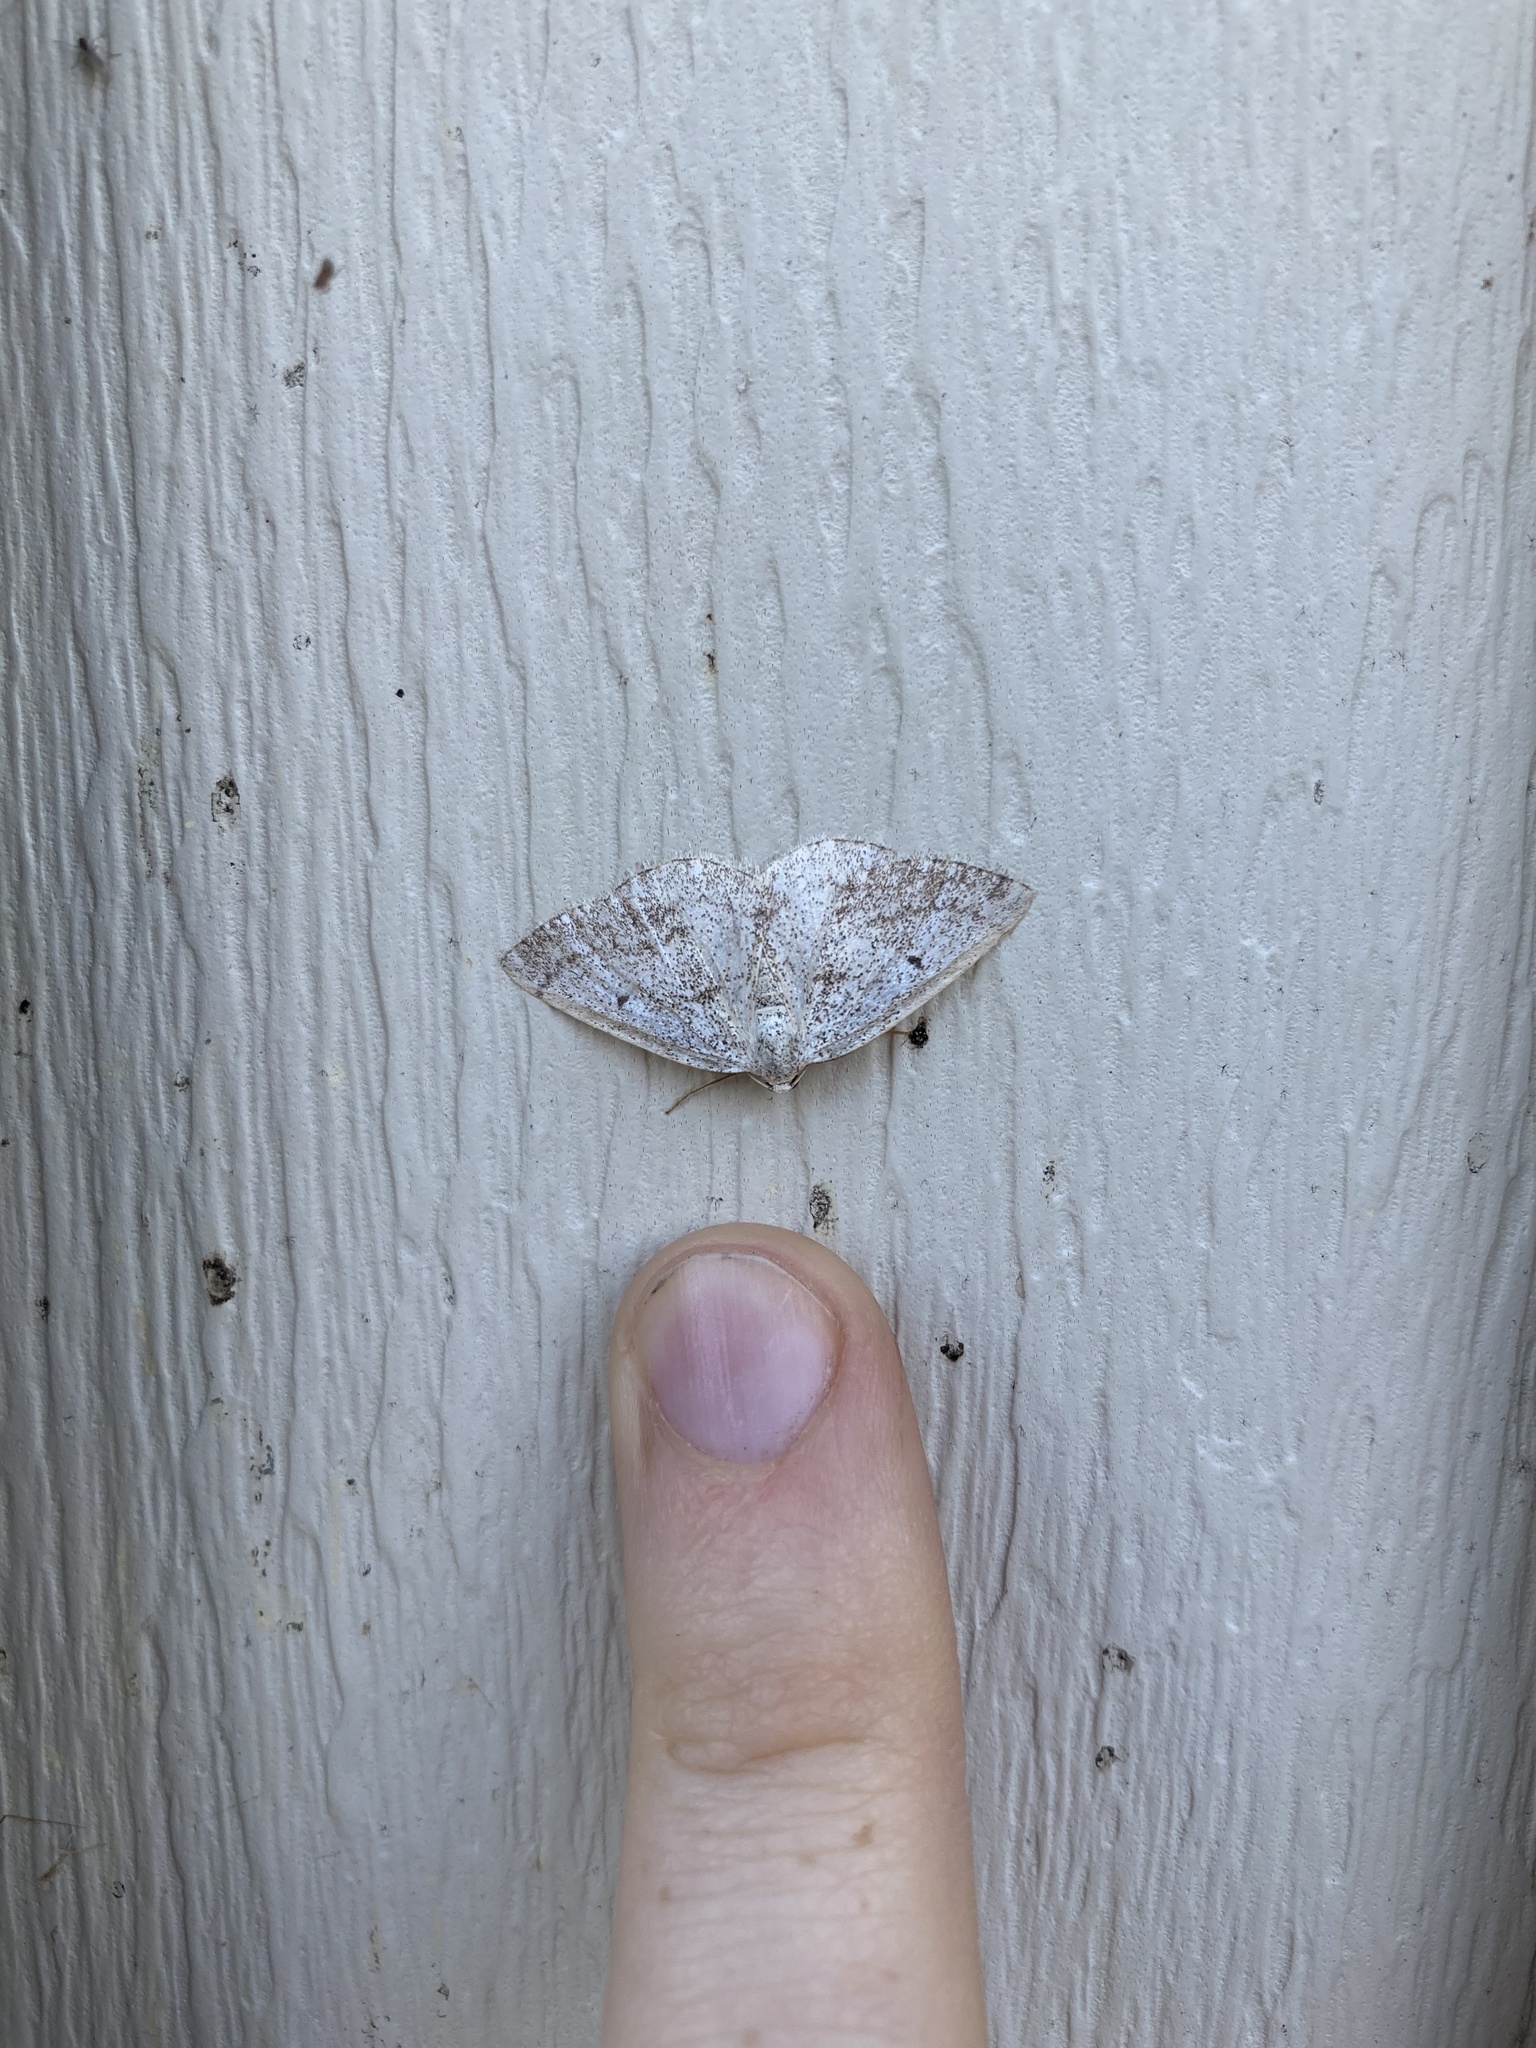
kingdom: Animalia
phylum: Arthropoda
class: Insecta
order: Lepidoptera
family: Geometridae
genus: Lomographa
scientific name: Lomographa glomeraria
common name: Gray spring moth
